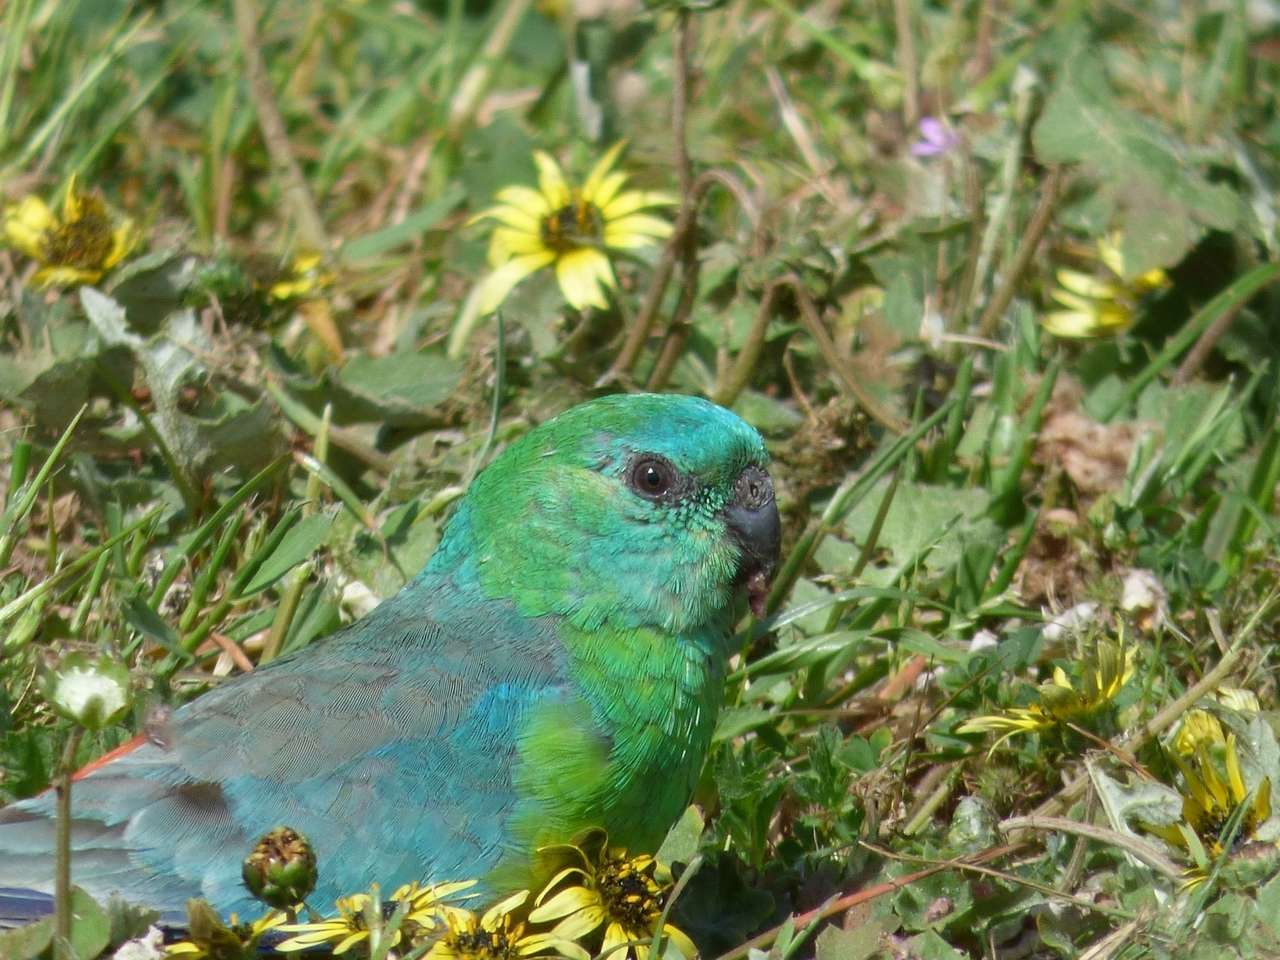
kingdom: Animalia
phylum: Chordata
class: Aves
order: Psittaciformes
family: Psittacidae
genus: Psephotus
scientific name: Psephotus haematonotus
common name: Red-rumped parrot
